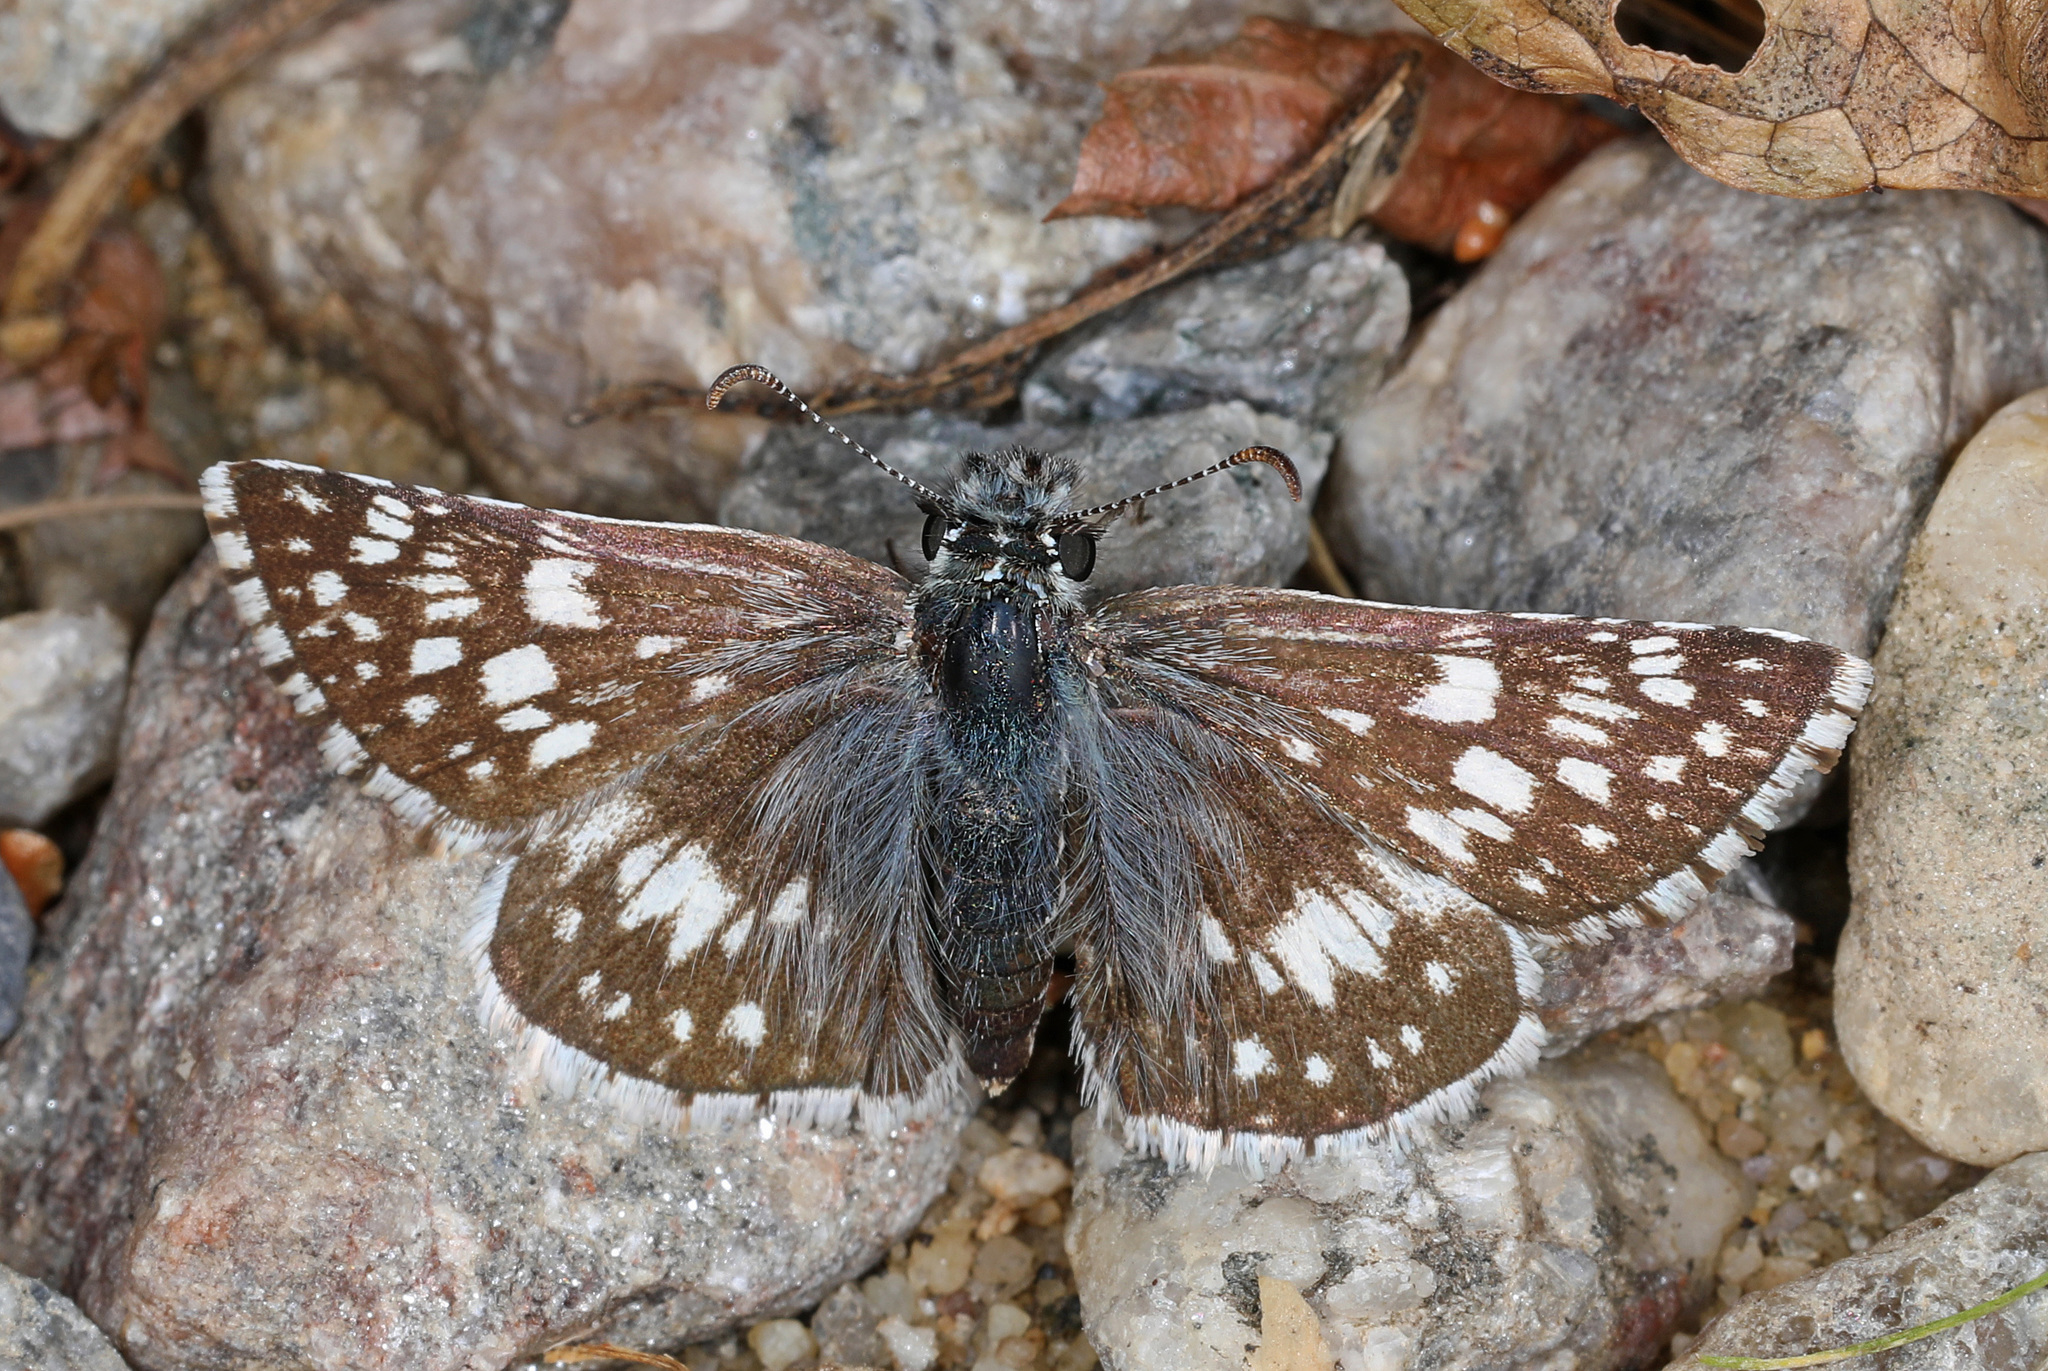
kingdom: Animalia
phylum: Arthropoda
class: Insecta
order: Lepidoptera
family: Hesperiidae
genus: Burnsius
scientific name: Burnsius communis
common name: Common checkered-skipper
